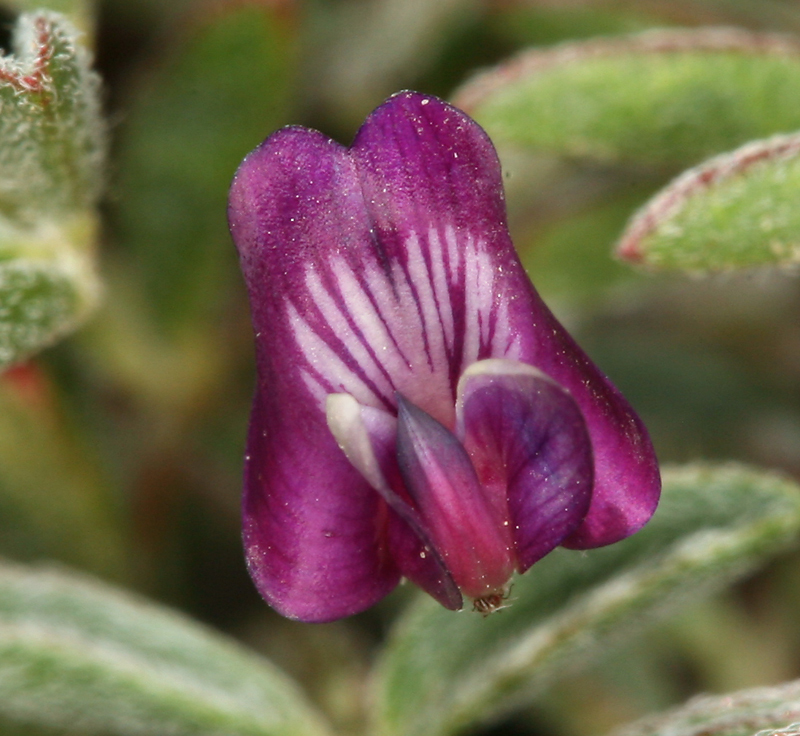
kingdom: Plantae
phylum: Tracheophyta
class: Magnoliopsida
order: Fabales
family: Fabaceae
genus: Astragalus
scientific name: Astragalus gilmanii
